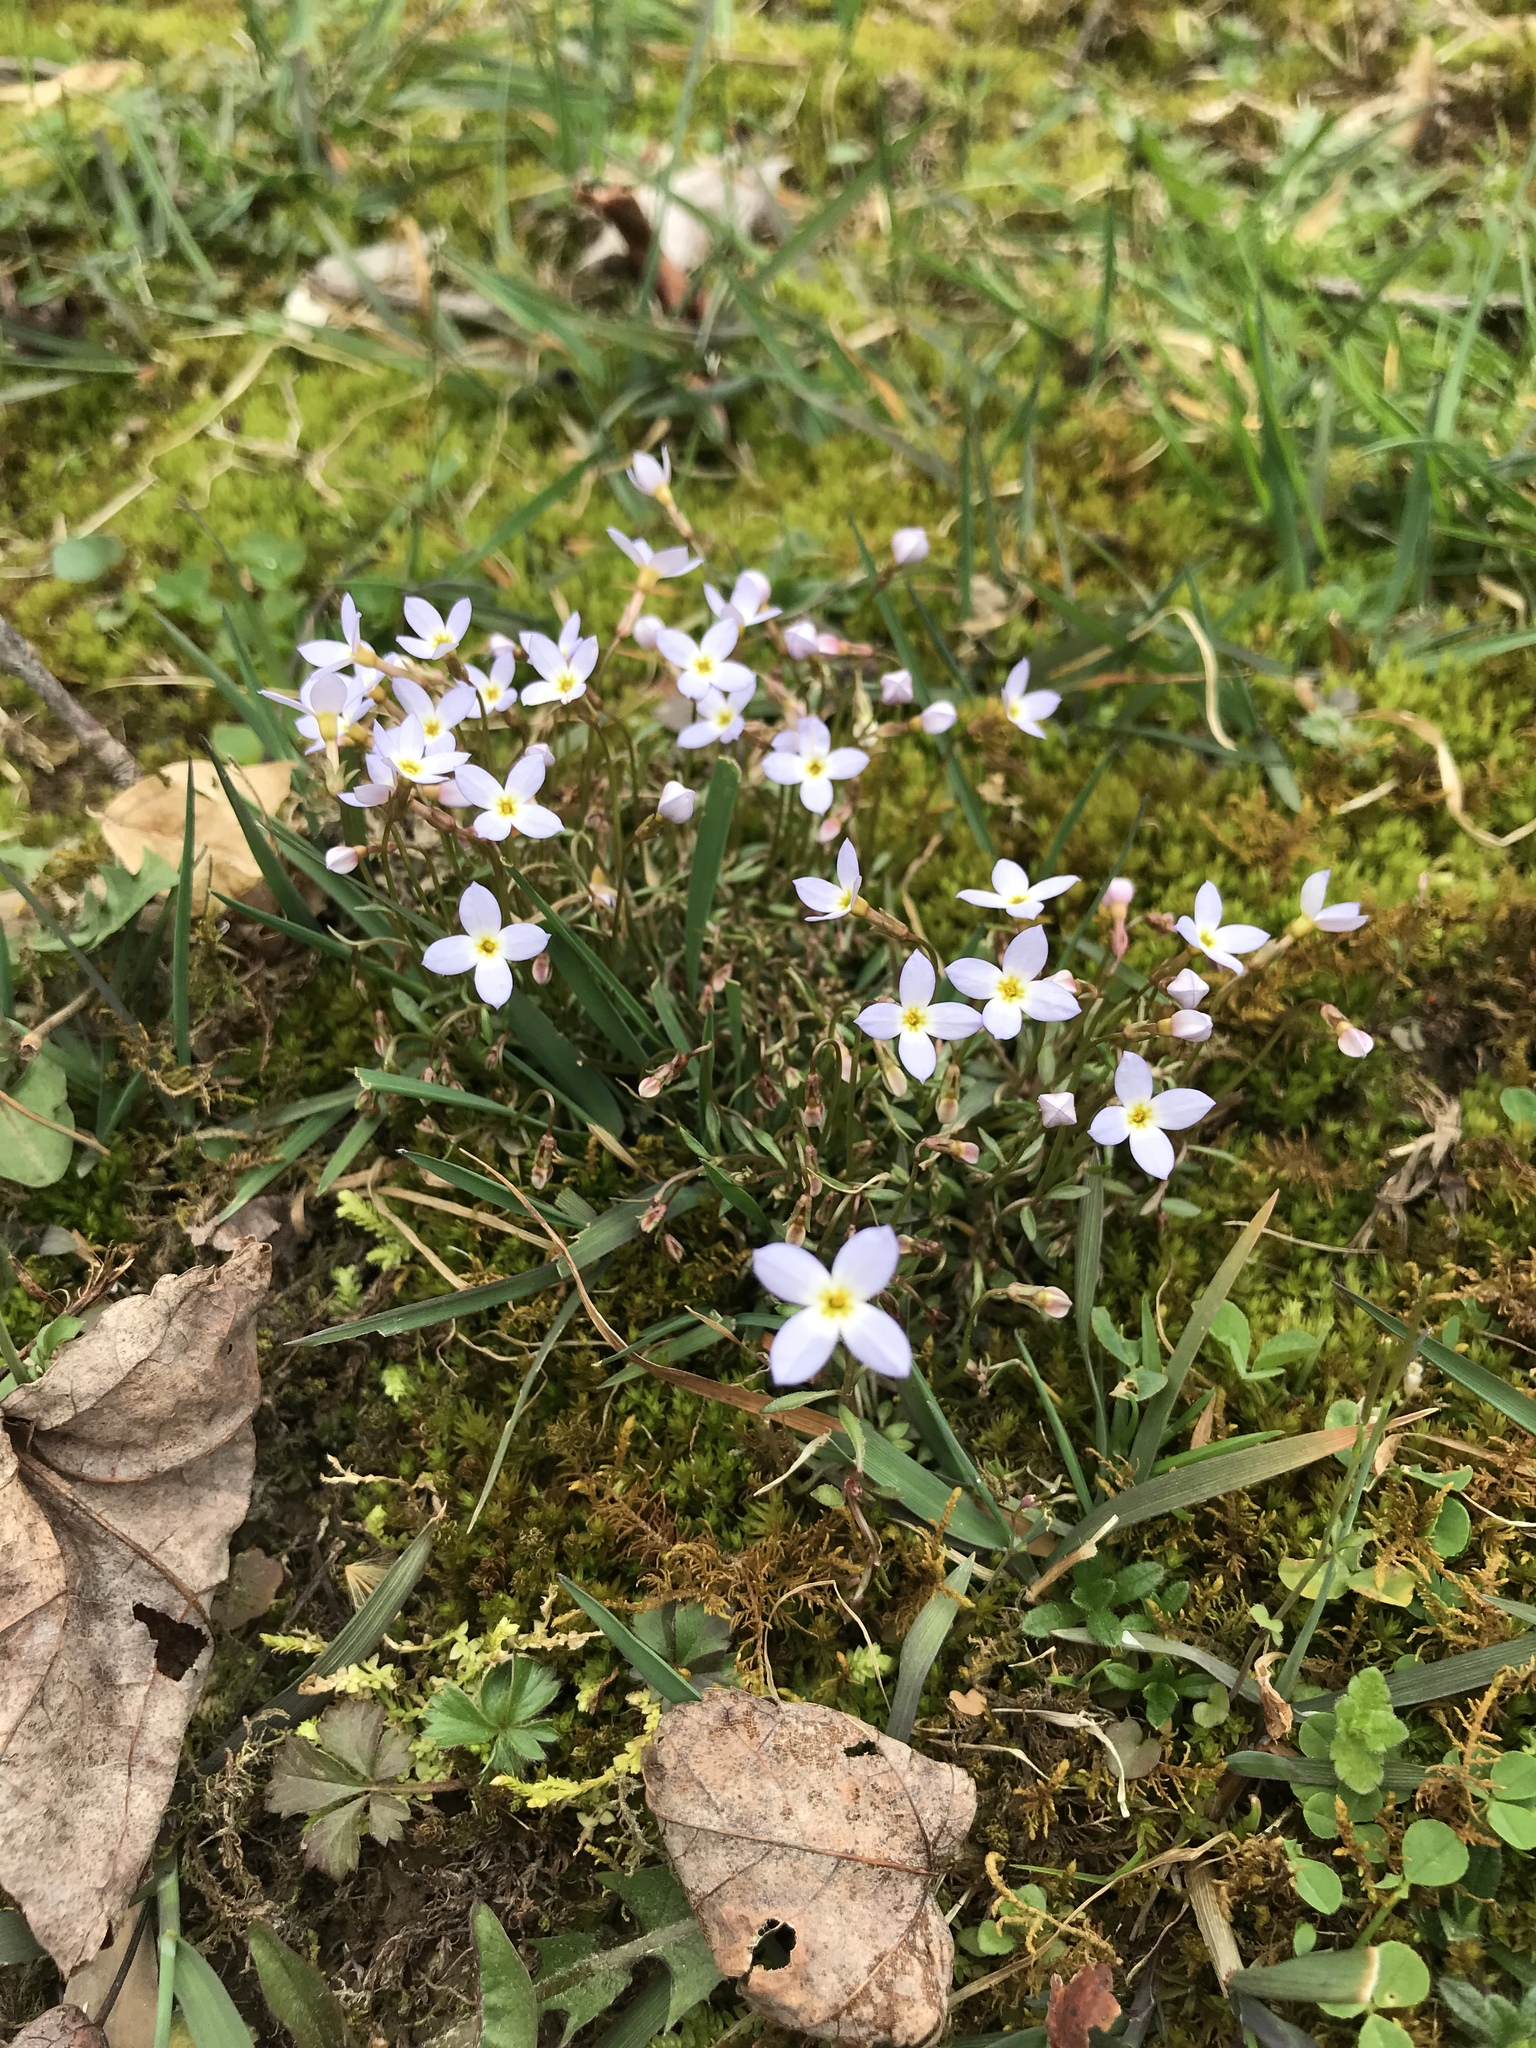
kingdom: Plantae
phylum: Tracheophyta
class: Magnoliopsida
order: Gentianales
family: Rubiaceae
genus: Houstonia
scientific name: Houstonia caerulea
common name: Bluets
